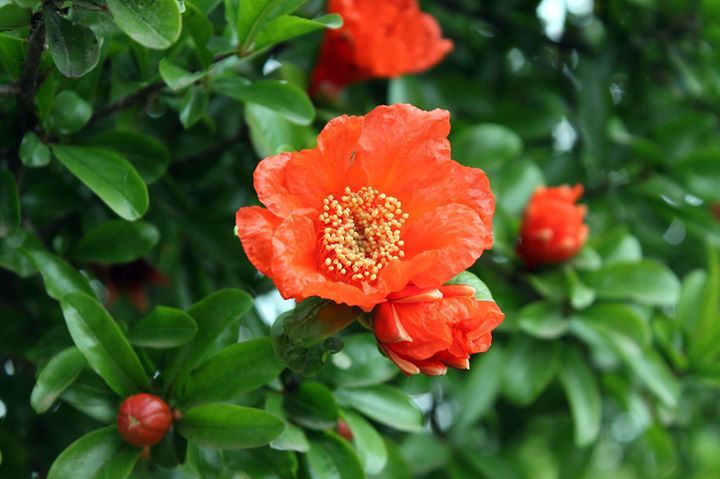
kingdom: Plantae
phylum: Tracheophyta
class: Magnoliopsida
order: Myrtales
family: Lythraceae
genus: Punica
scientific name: Punica granatum
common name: Pomegranate
